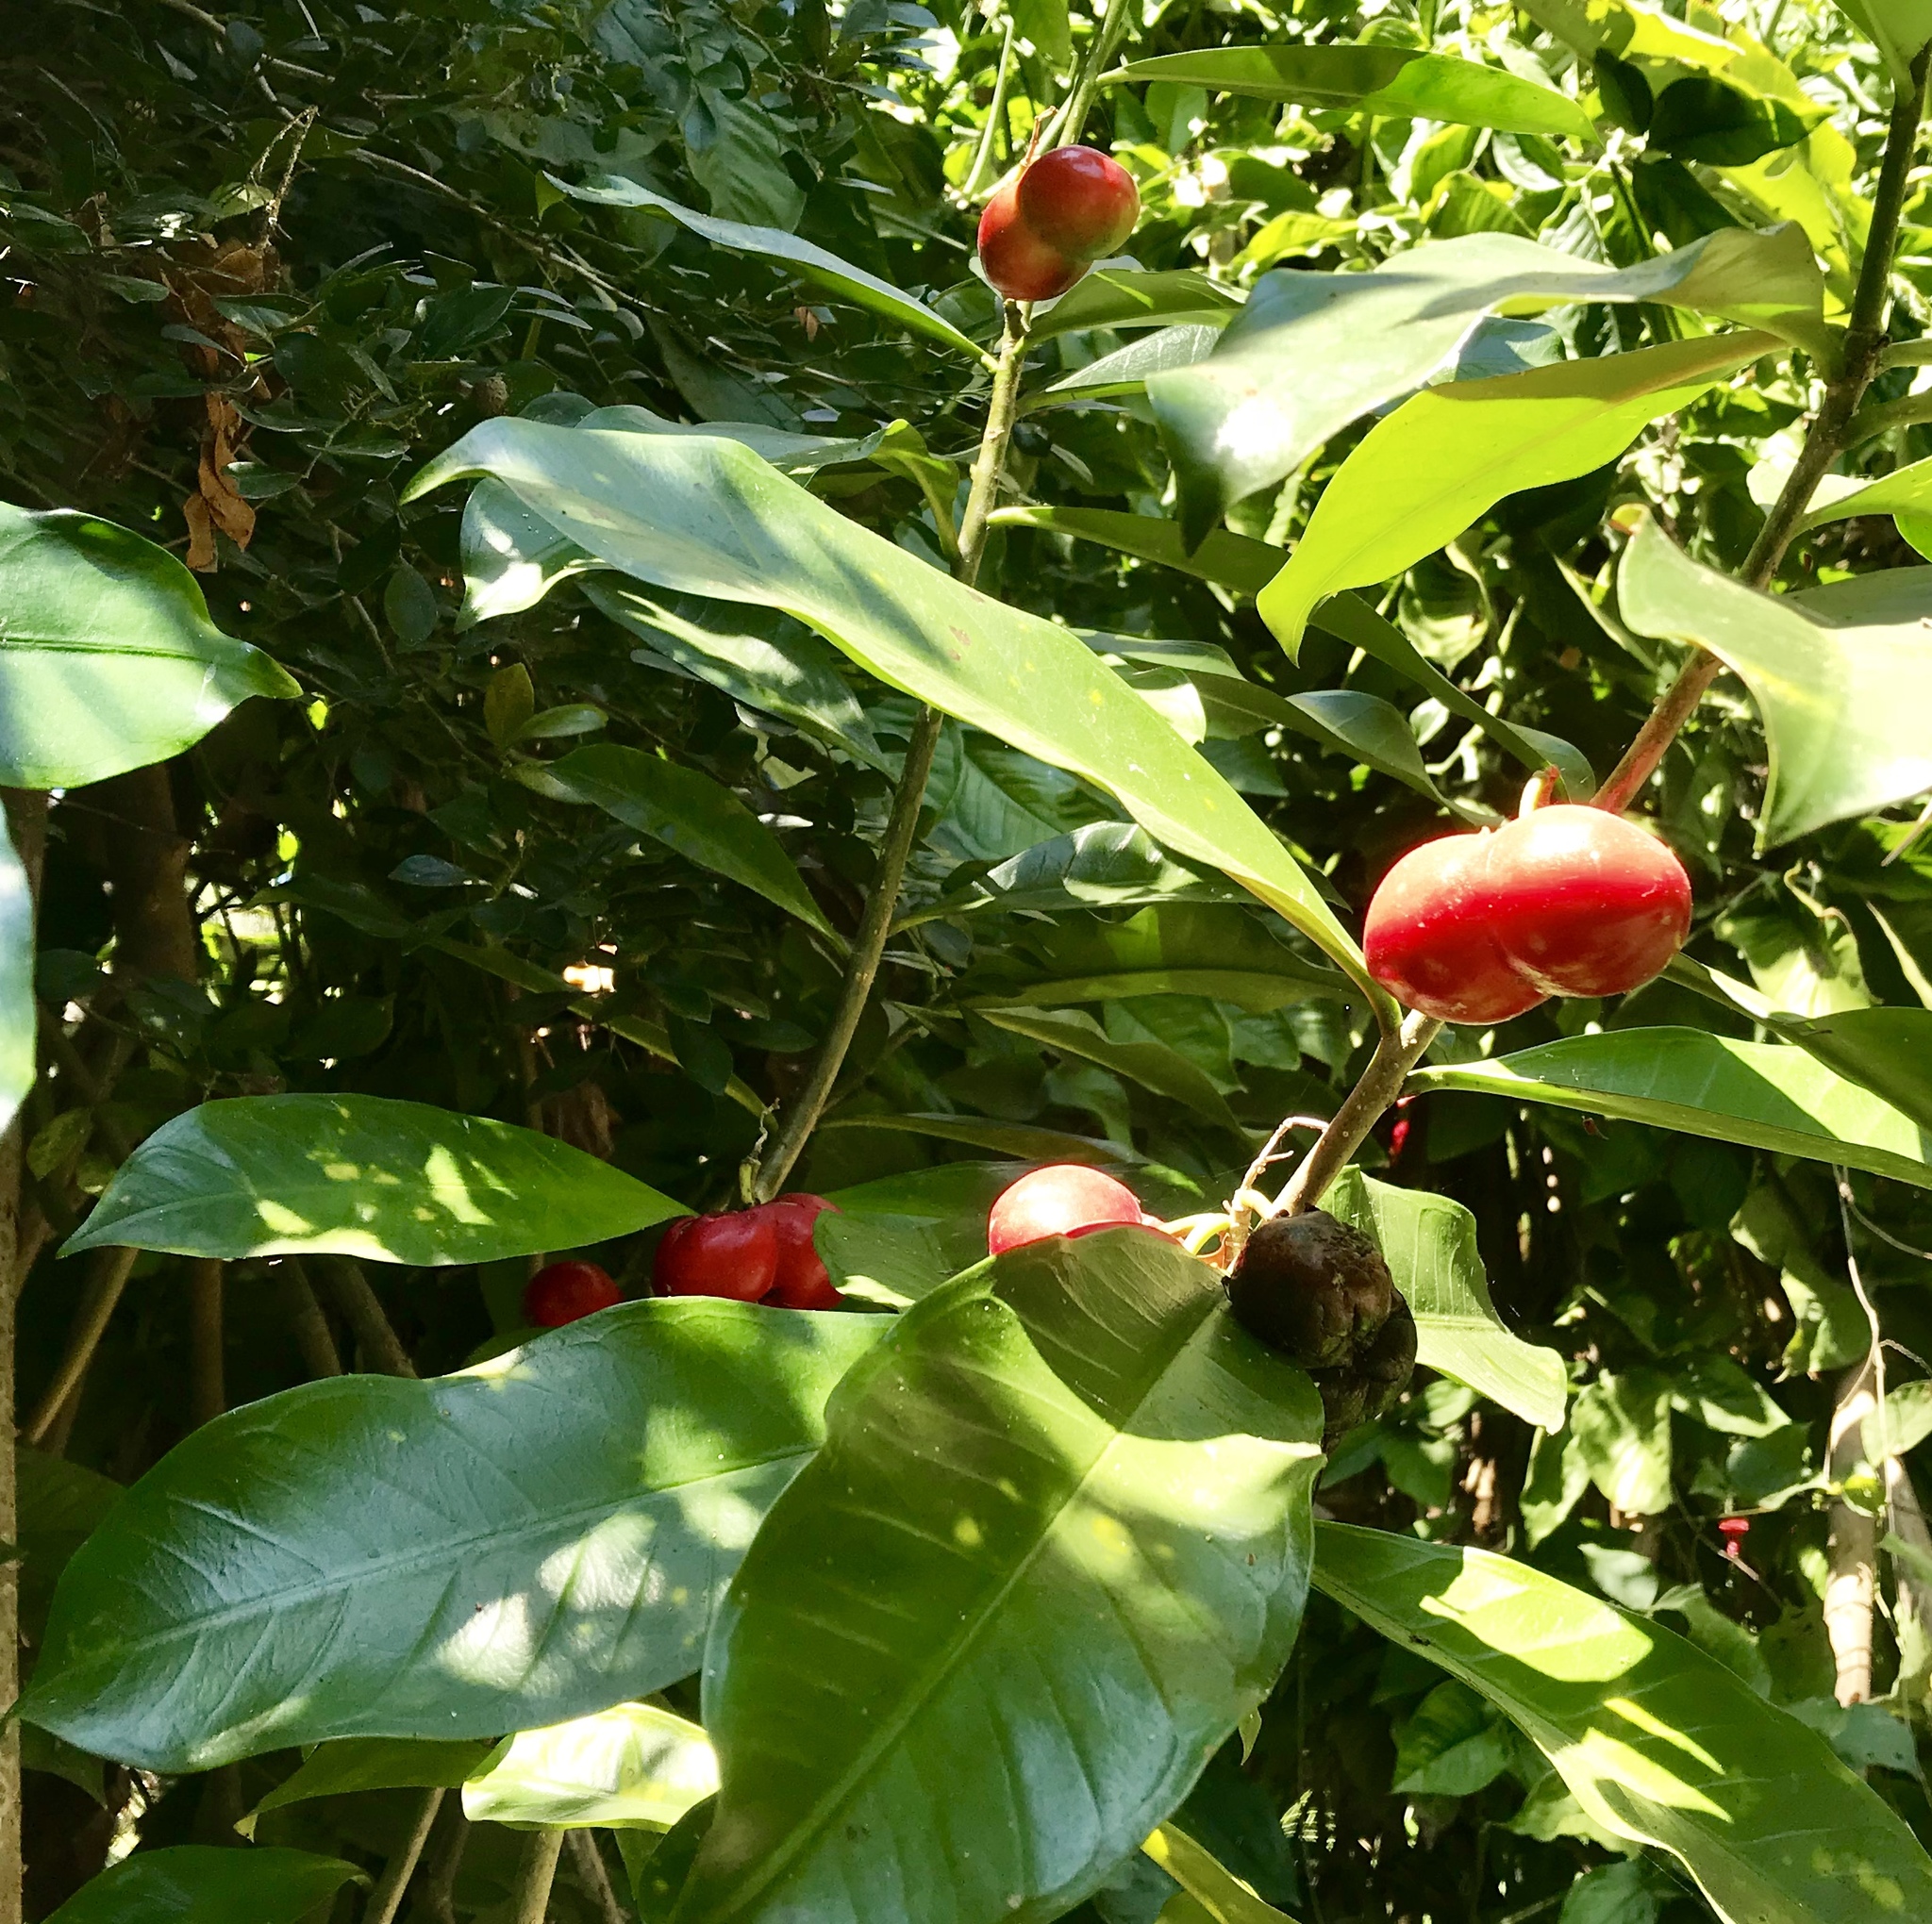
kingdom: Plantae
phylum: Tracheophyta
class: Magnoliopsida
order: Gentianales
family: Apocynaceae
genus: Thevetia
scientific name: Thevetia ahouai
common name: Broadleaf thevetia
